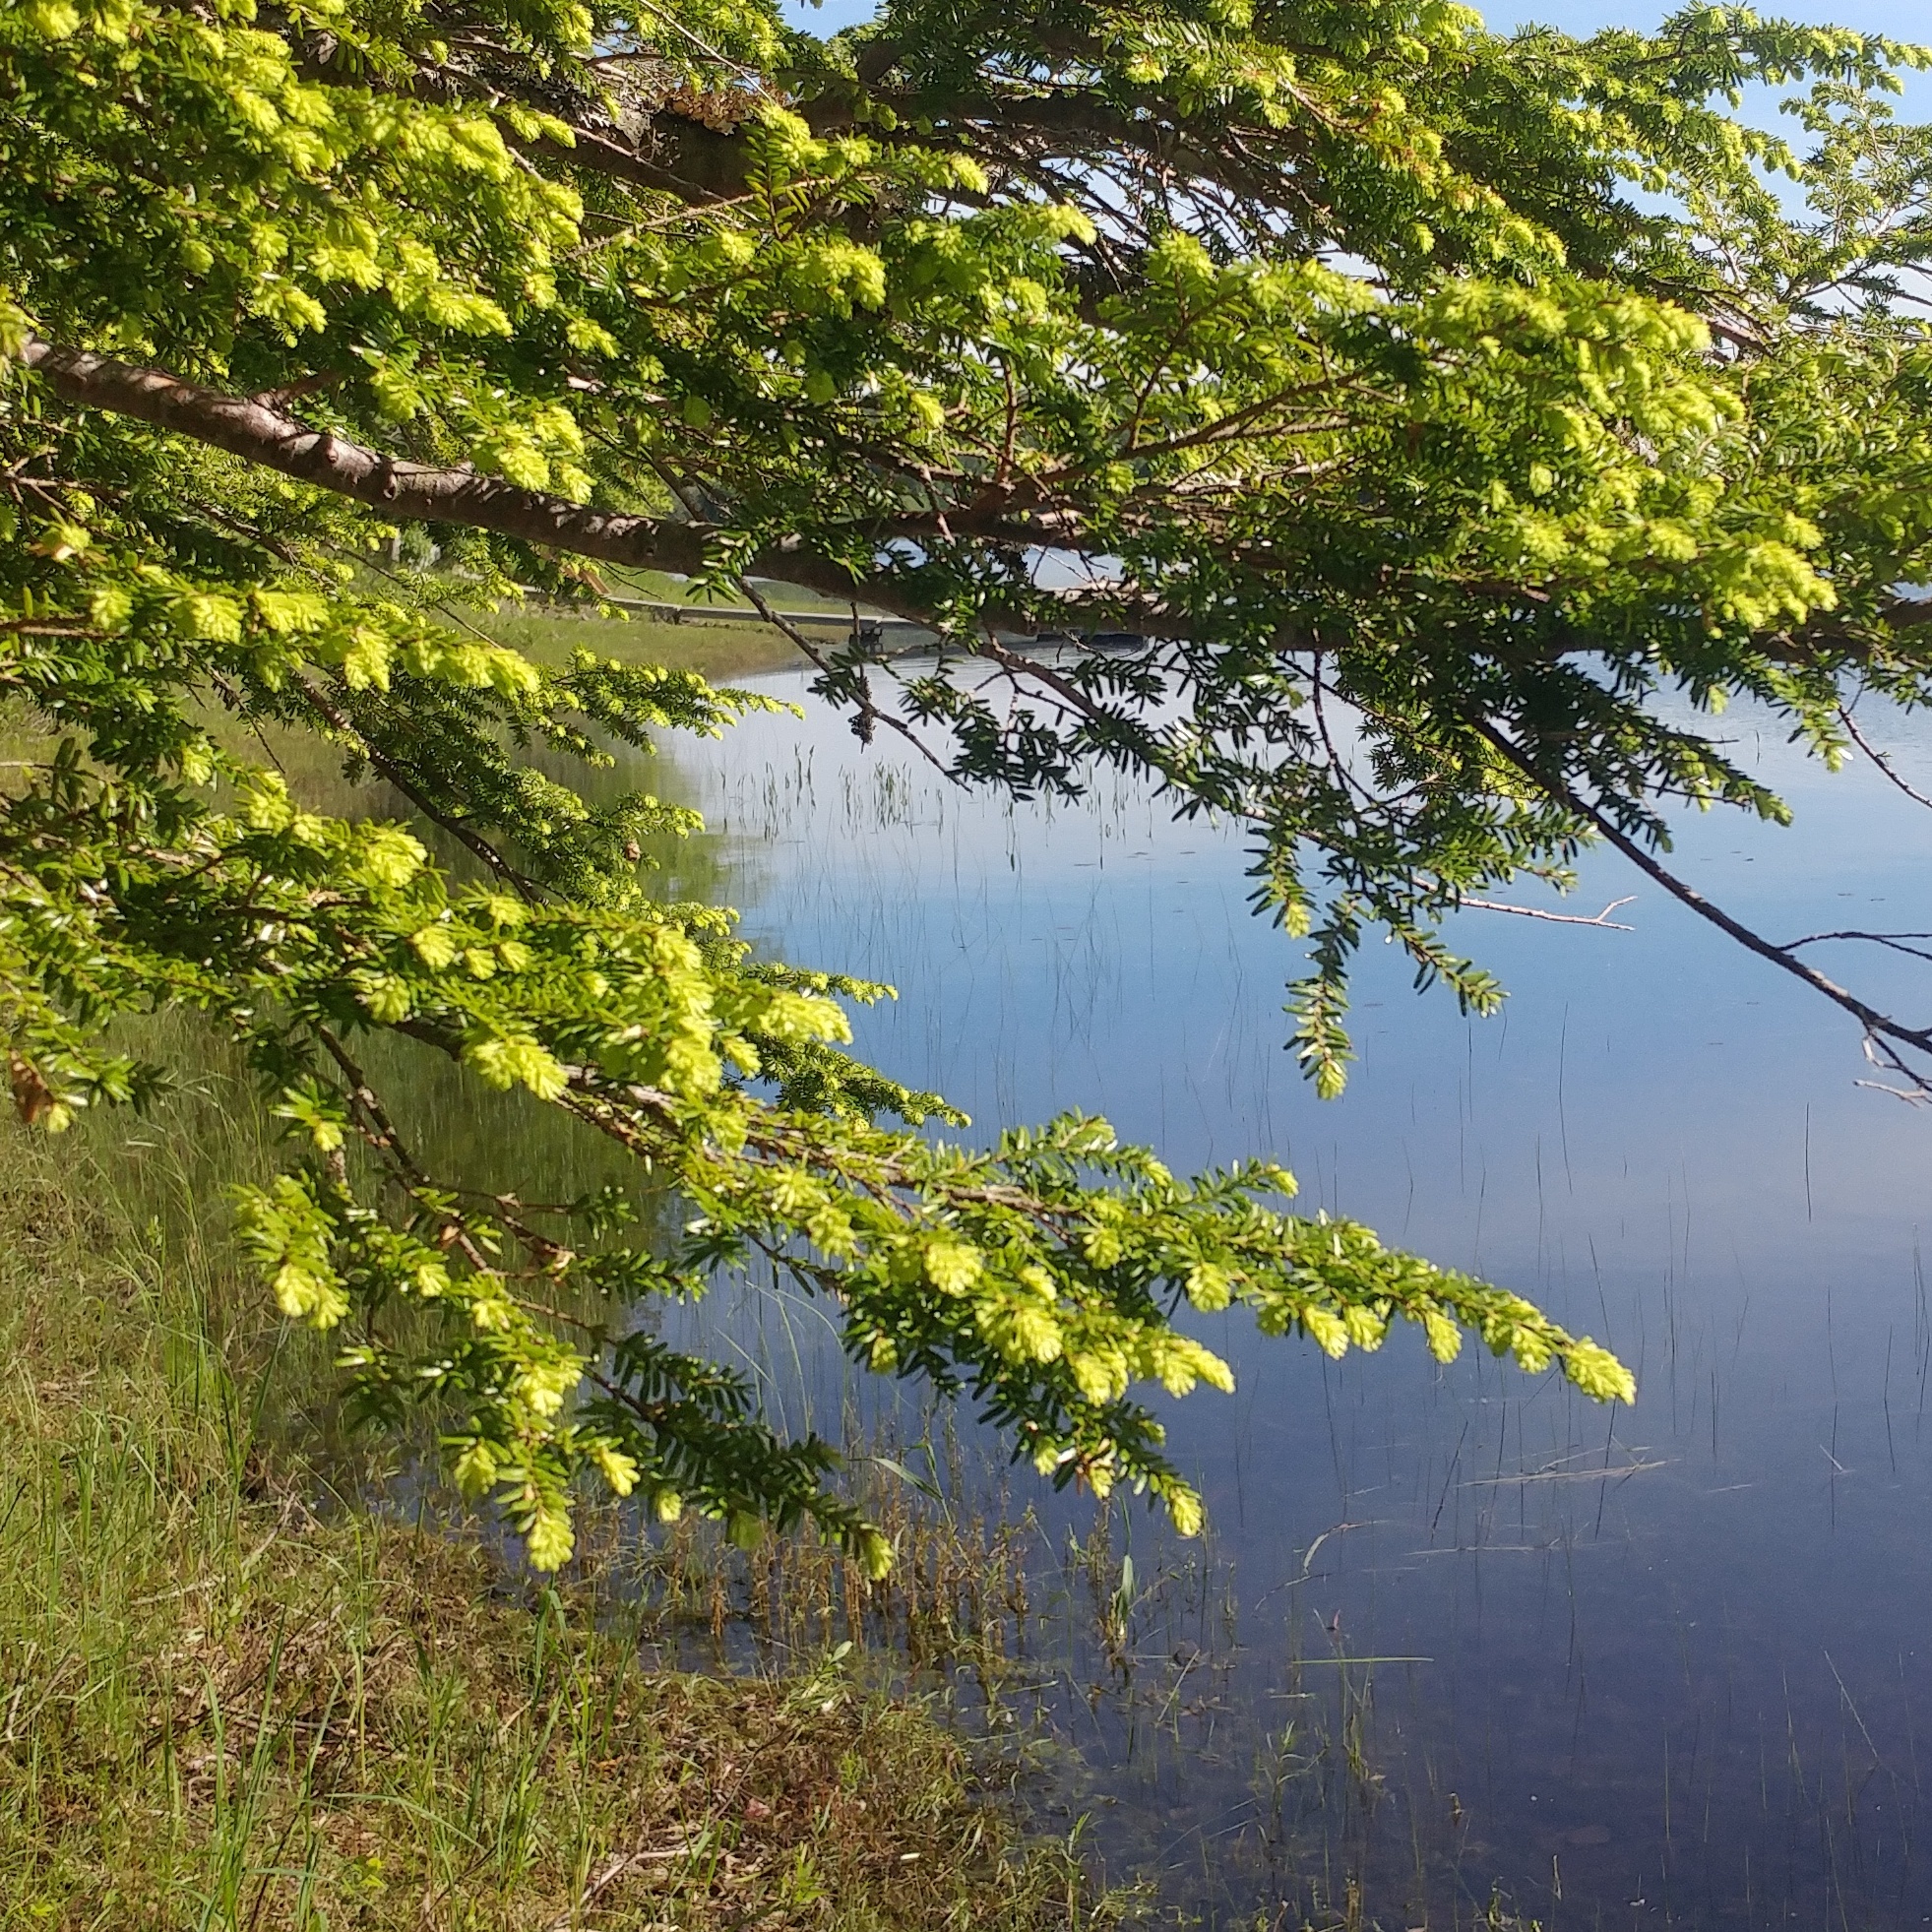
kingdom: Plantae
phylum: Tracheophyta
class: Pinopsida
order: Pinales
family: Pinaceae
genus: Tsuga
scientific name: Tsuga canadensis
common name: Eastern hemlock
